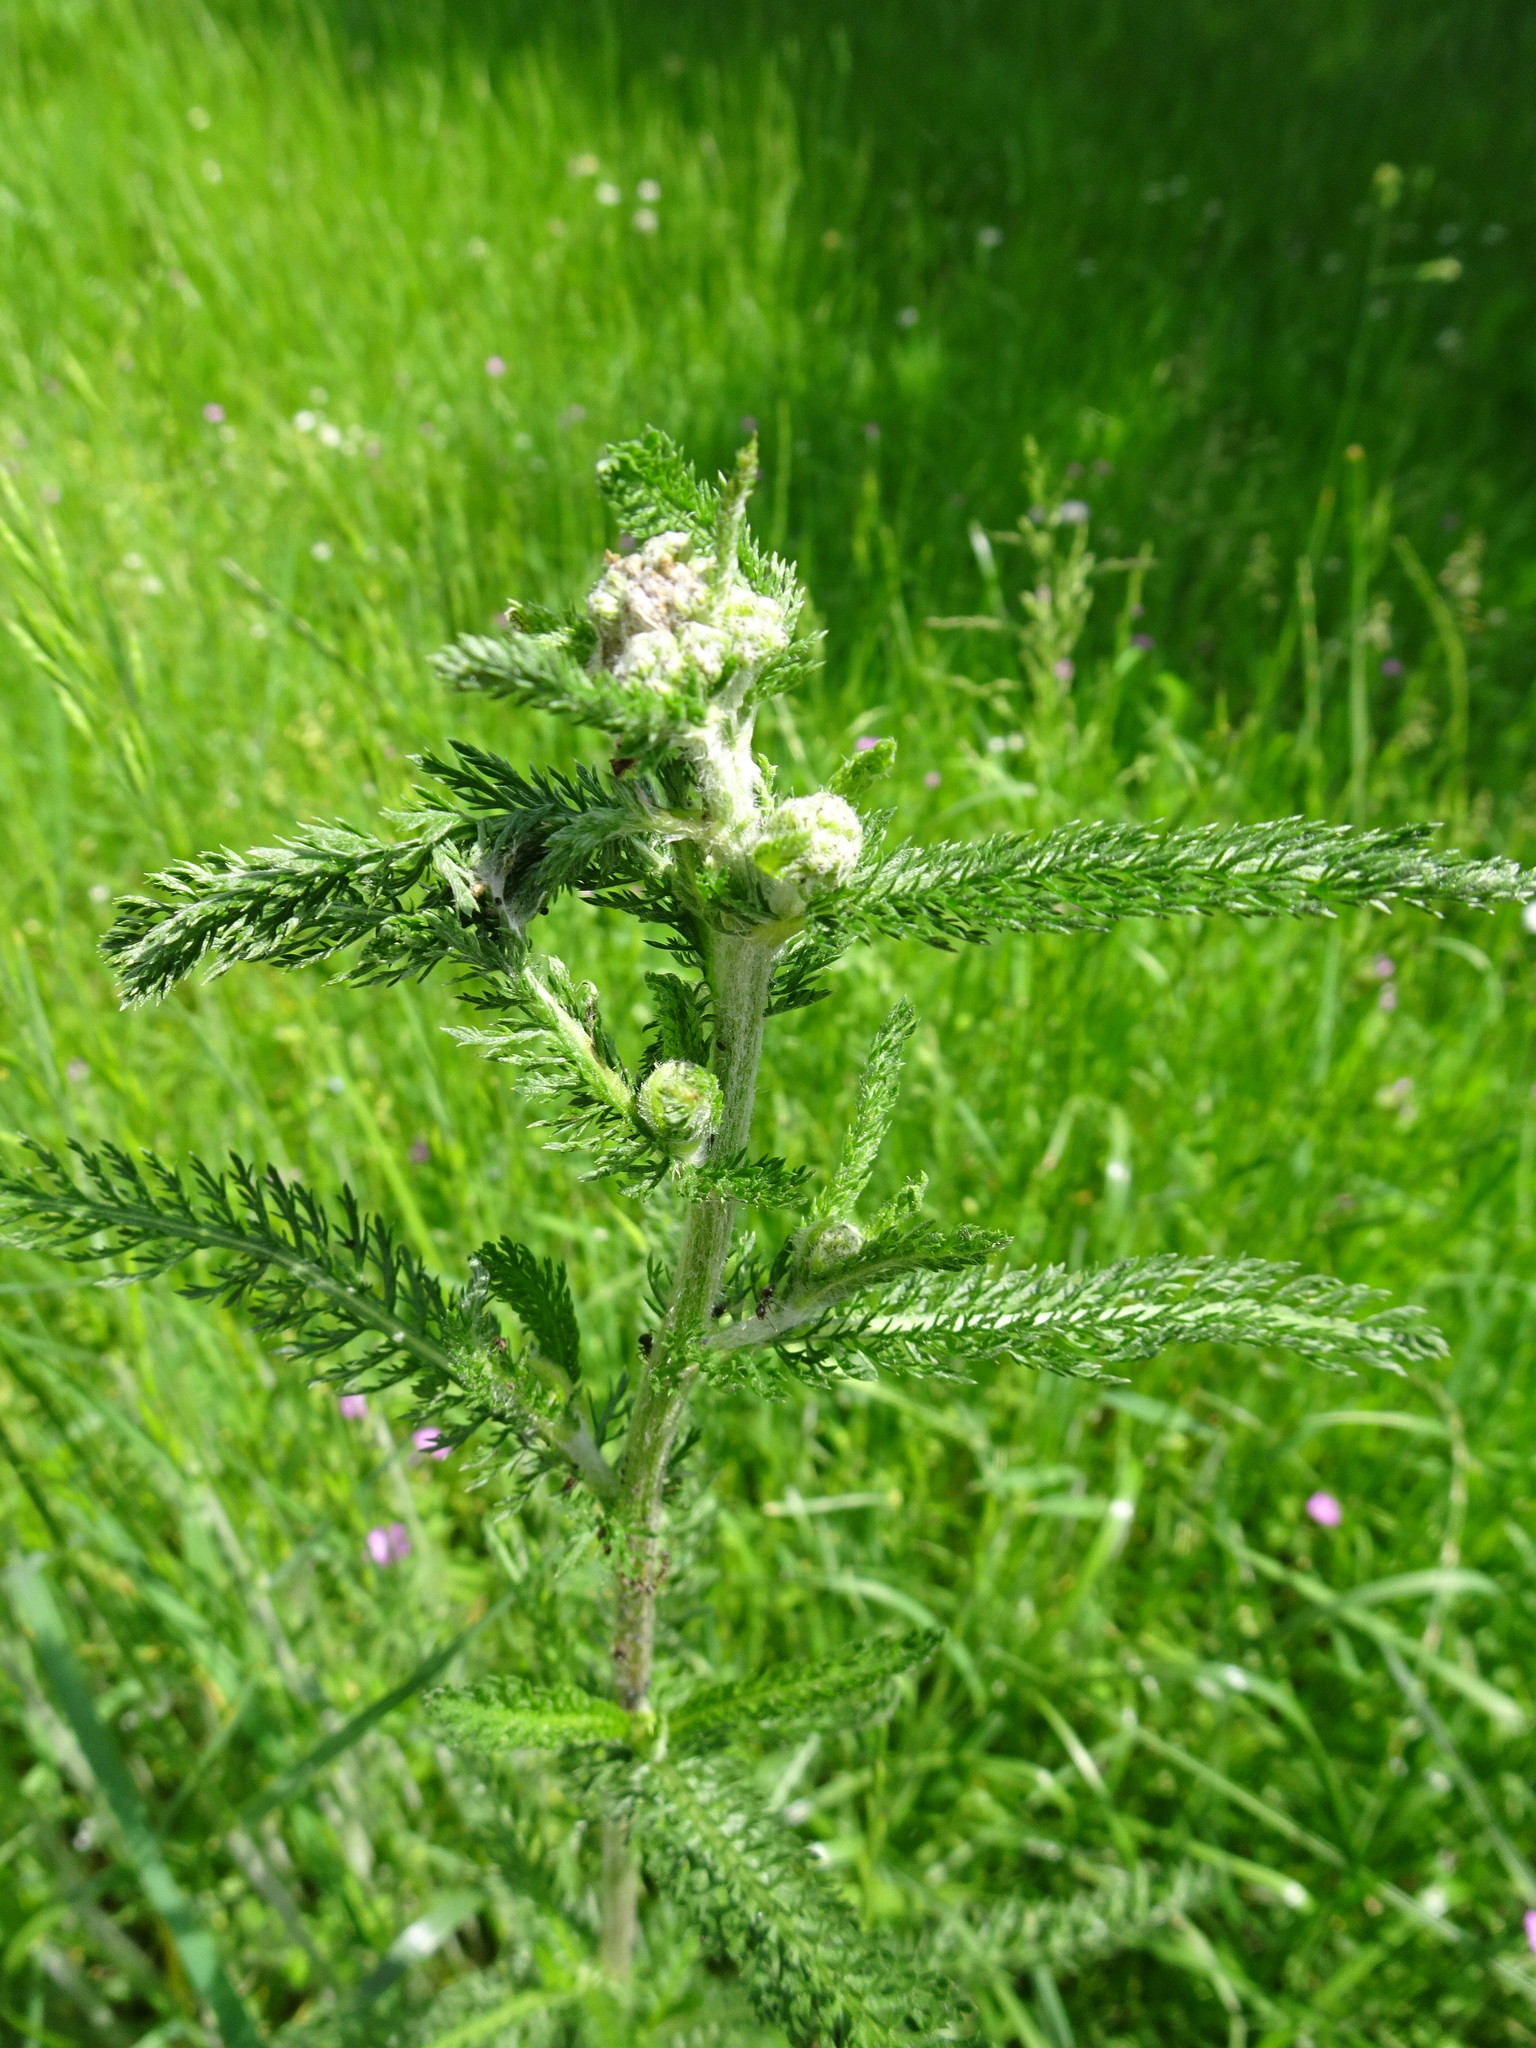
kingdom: Plantae
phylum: Tracheophyta
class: Magnoliopsida
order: Asterales
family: Asteraceae
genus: Achillea
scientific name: Achillea millefolium
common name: Yarrow
